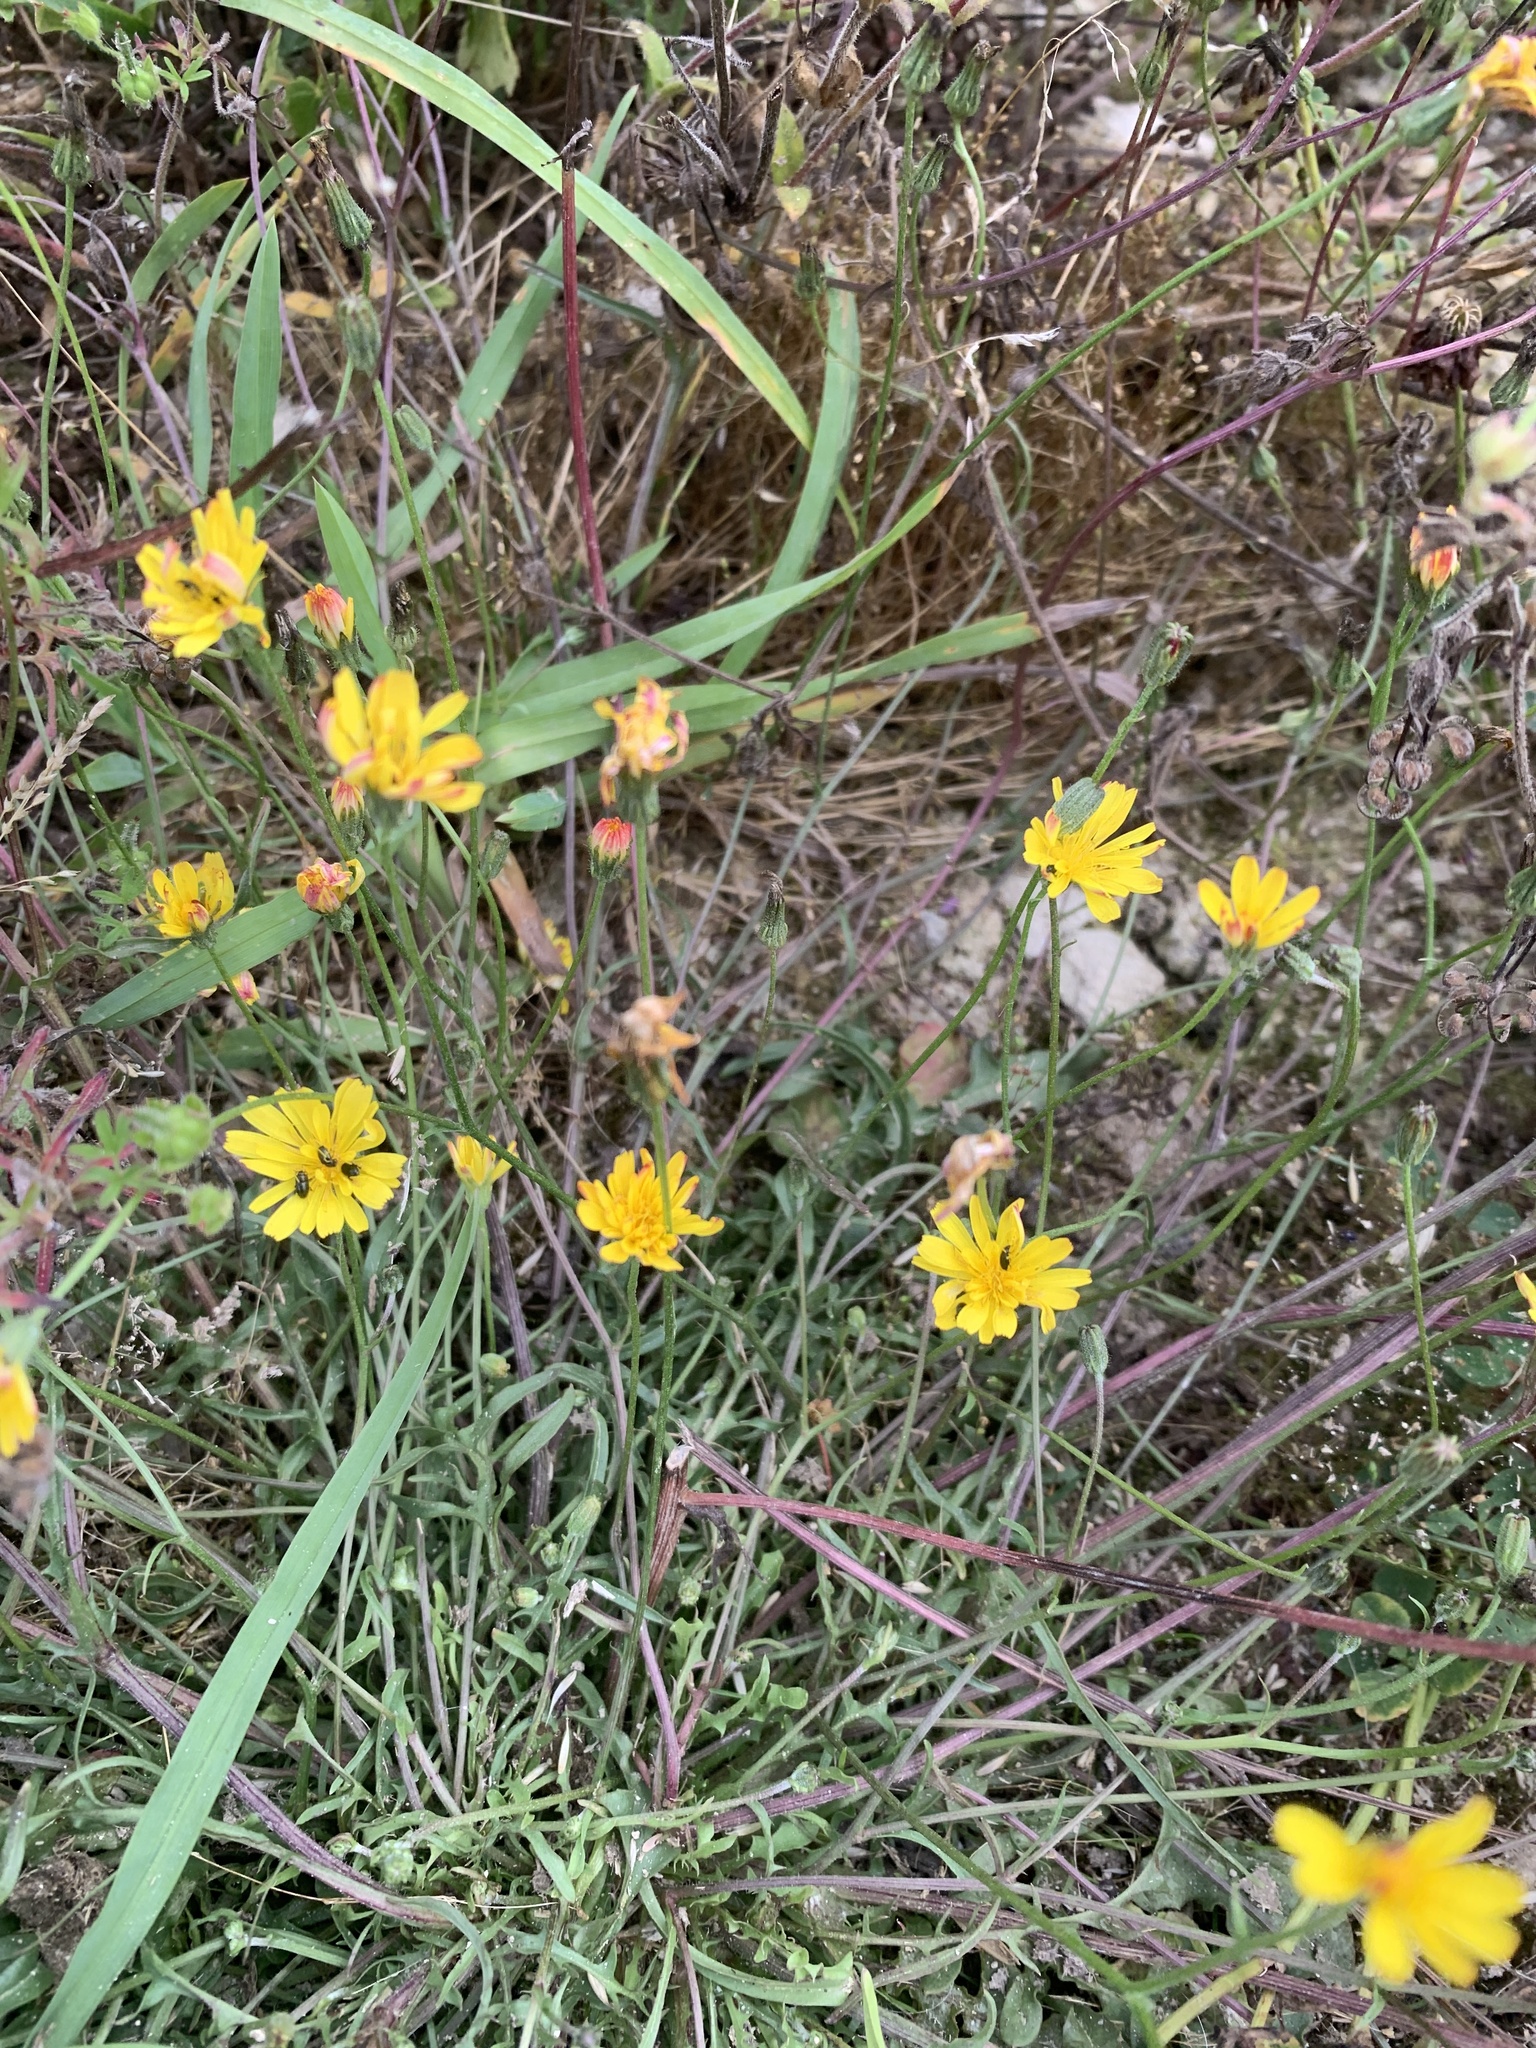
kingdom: Plantae
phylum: Tracheophyta
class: Magnoliopsida
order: Asterales
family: Asteraceae
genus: Crepis
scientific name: Crepis capillaris
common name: Smooth hawksbeard
